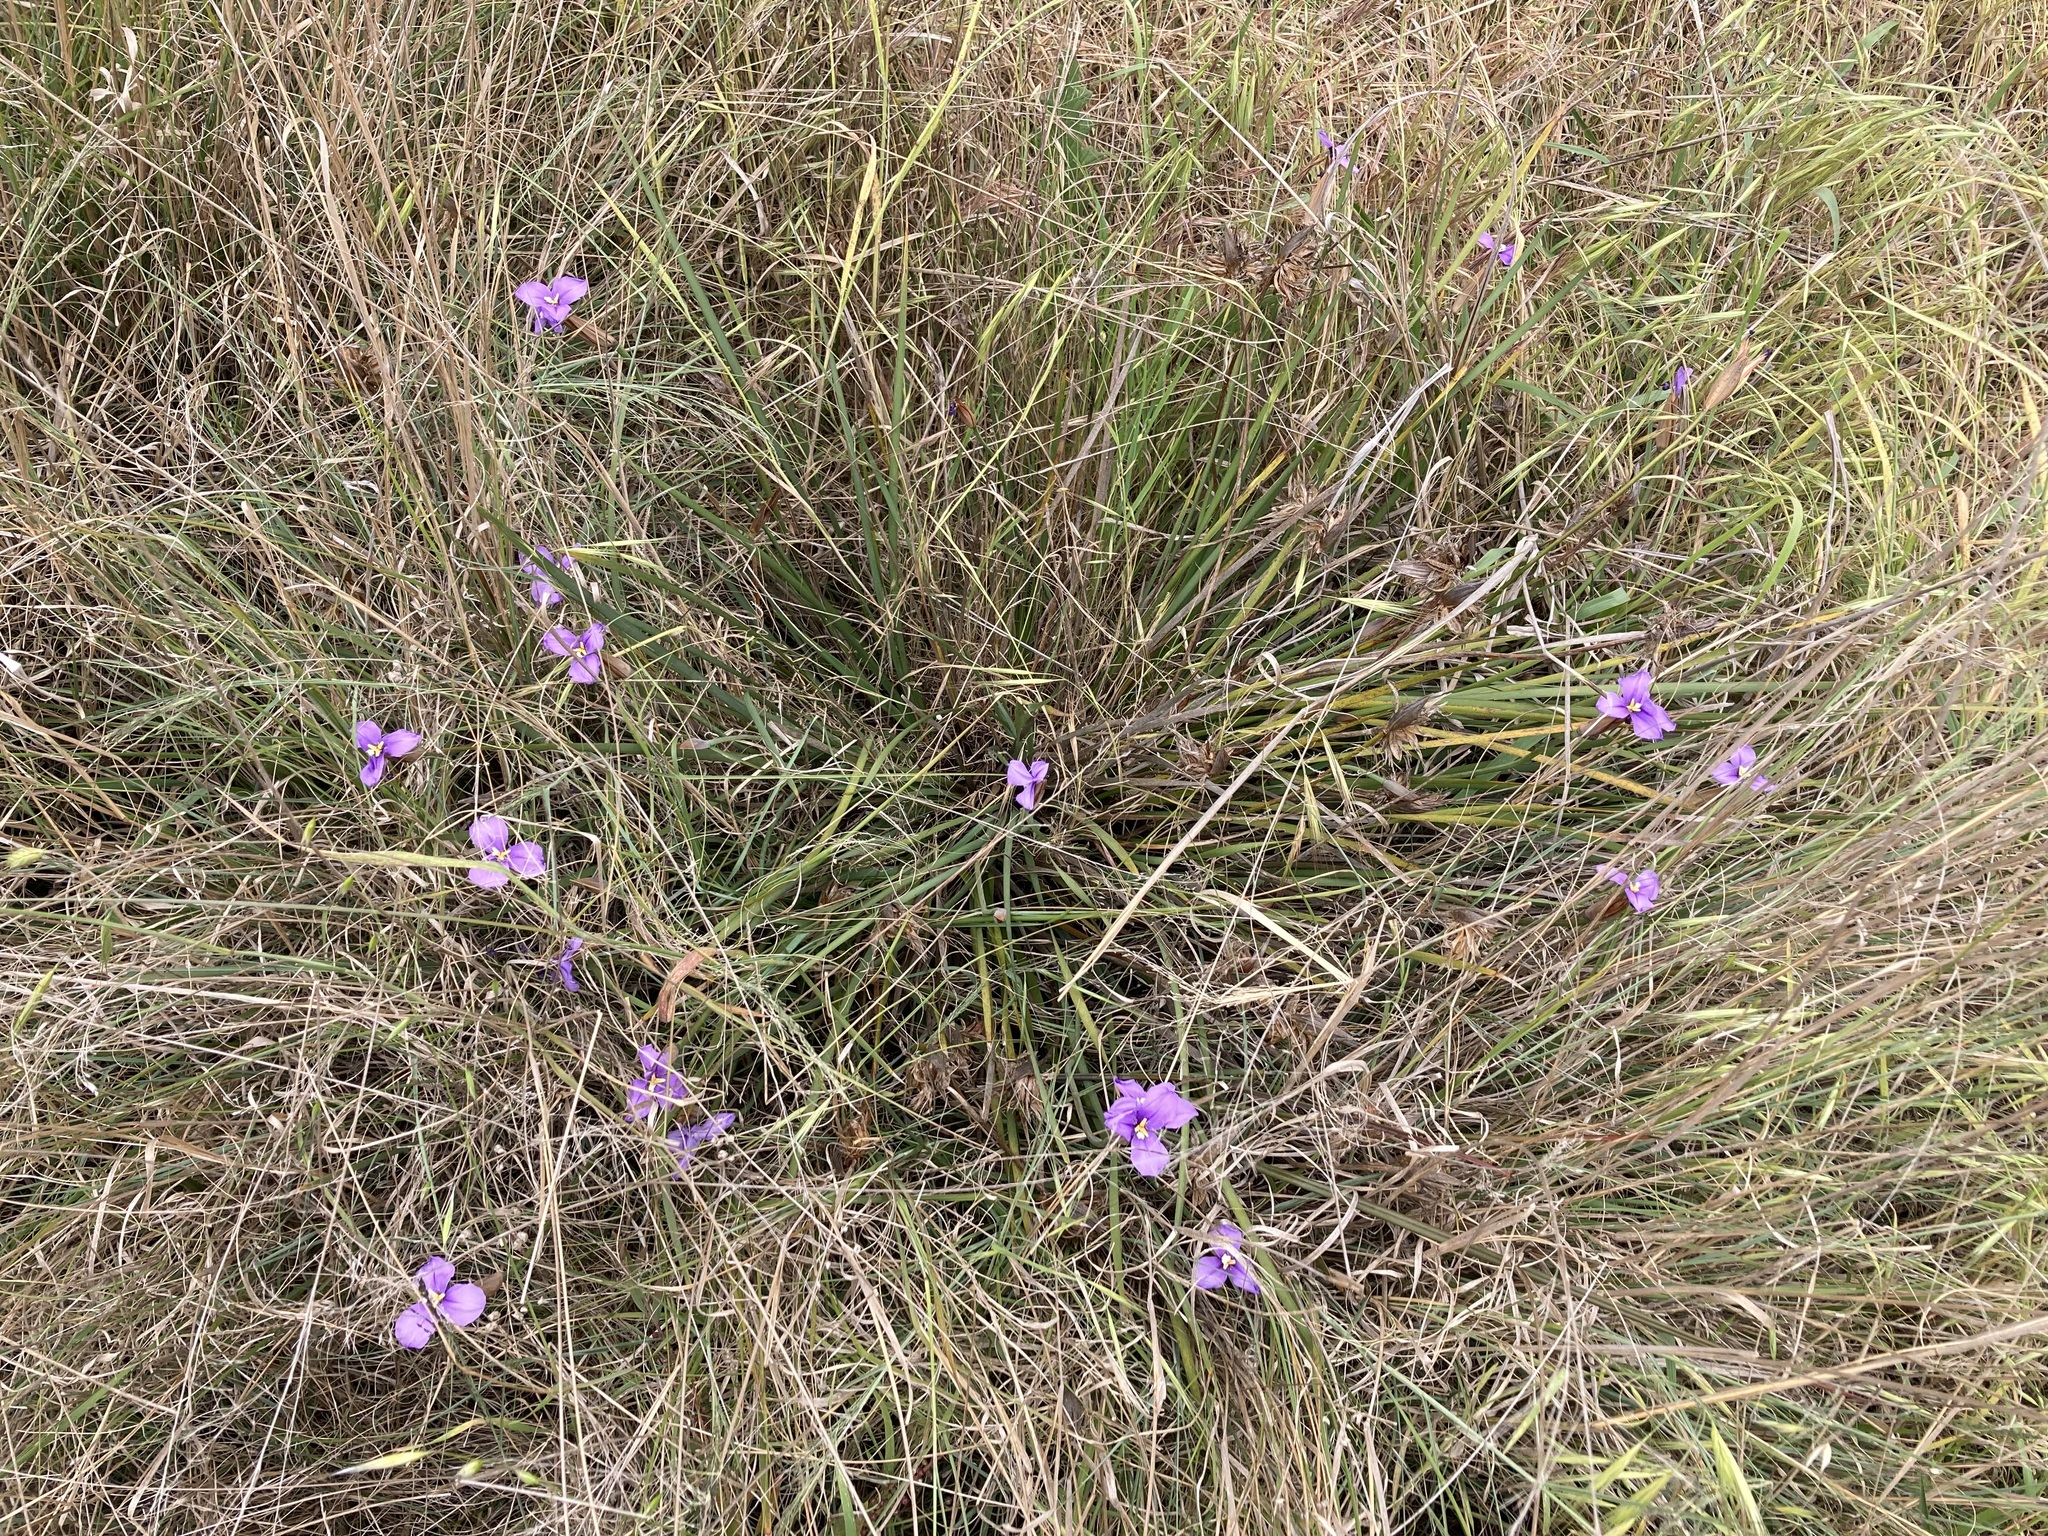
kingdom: Plantae
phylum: Tracheophyta
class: Liliopsida
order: Asparagales
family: Iridaceae
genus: Patersonia
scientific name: Patersonia occidentalis
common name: Long purple-flag
